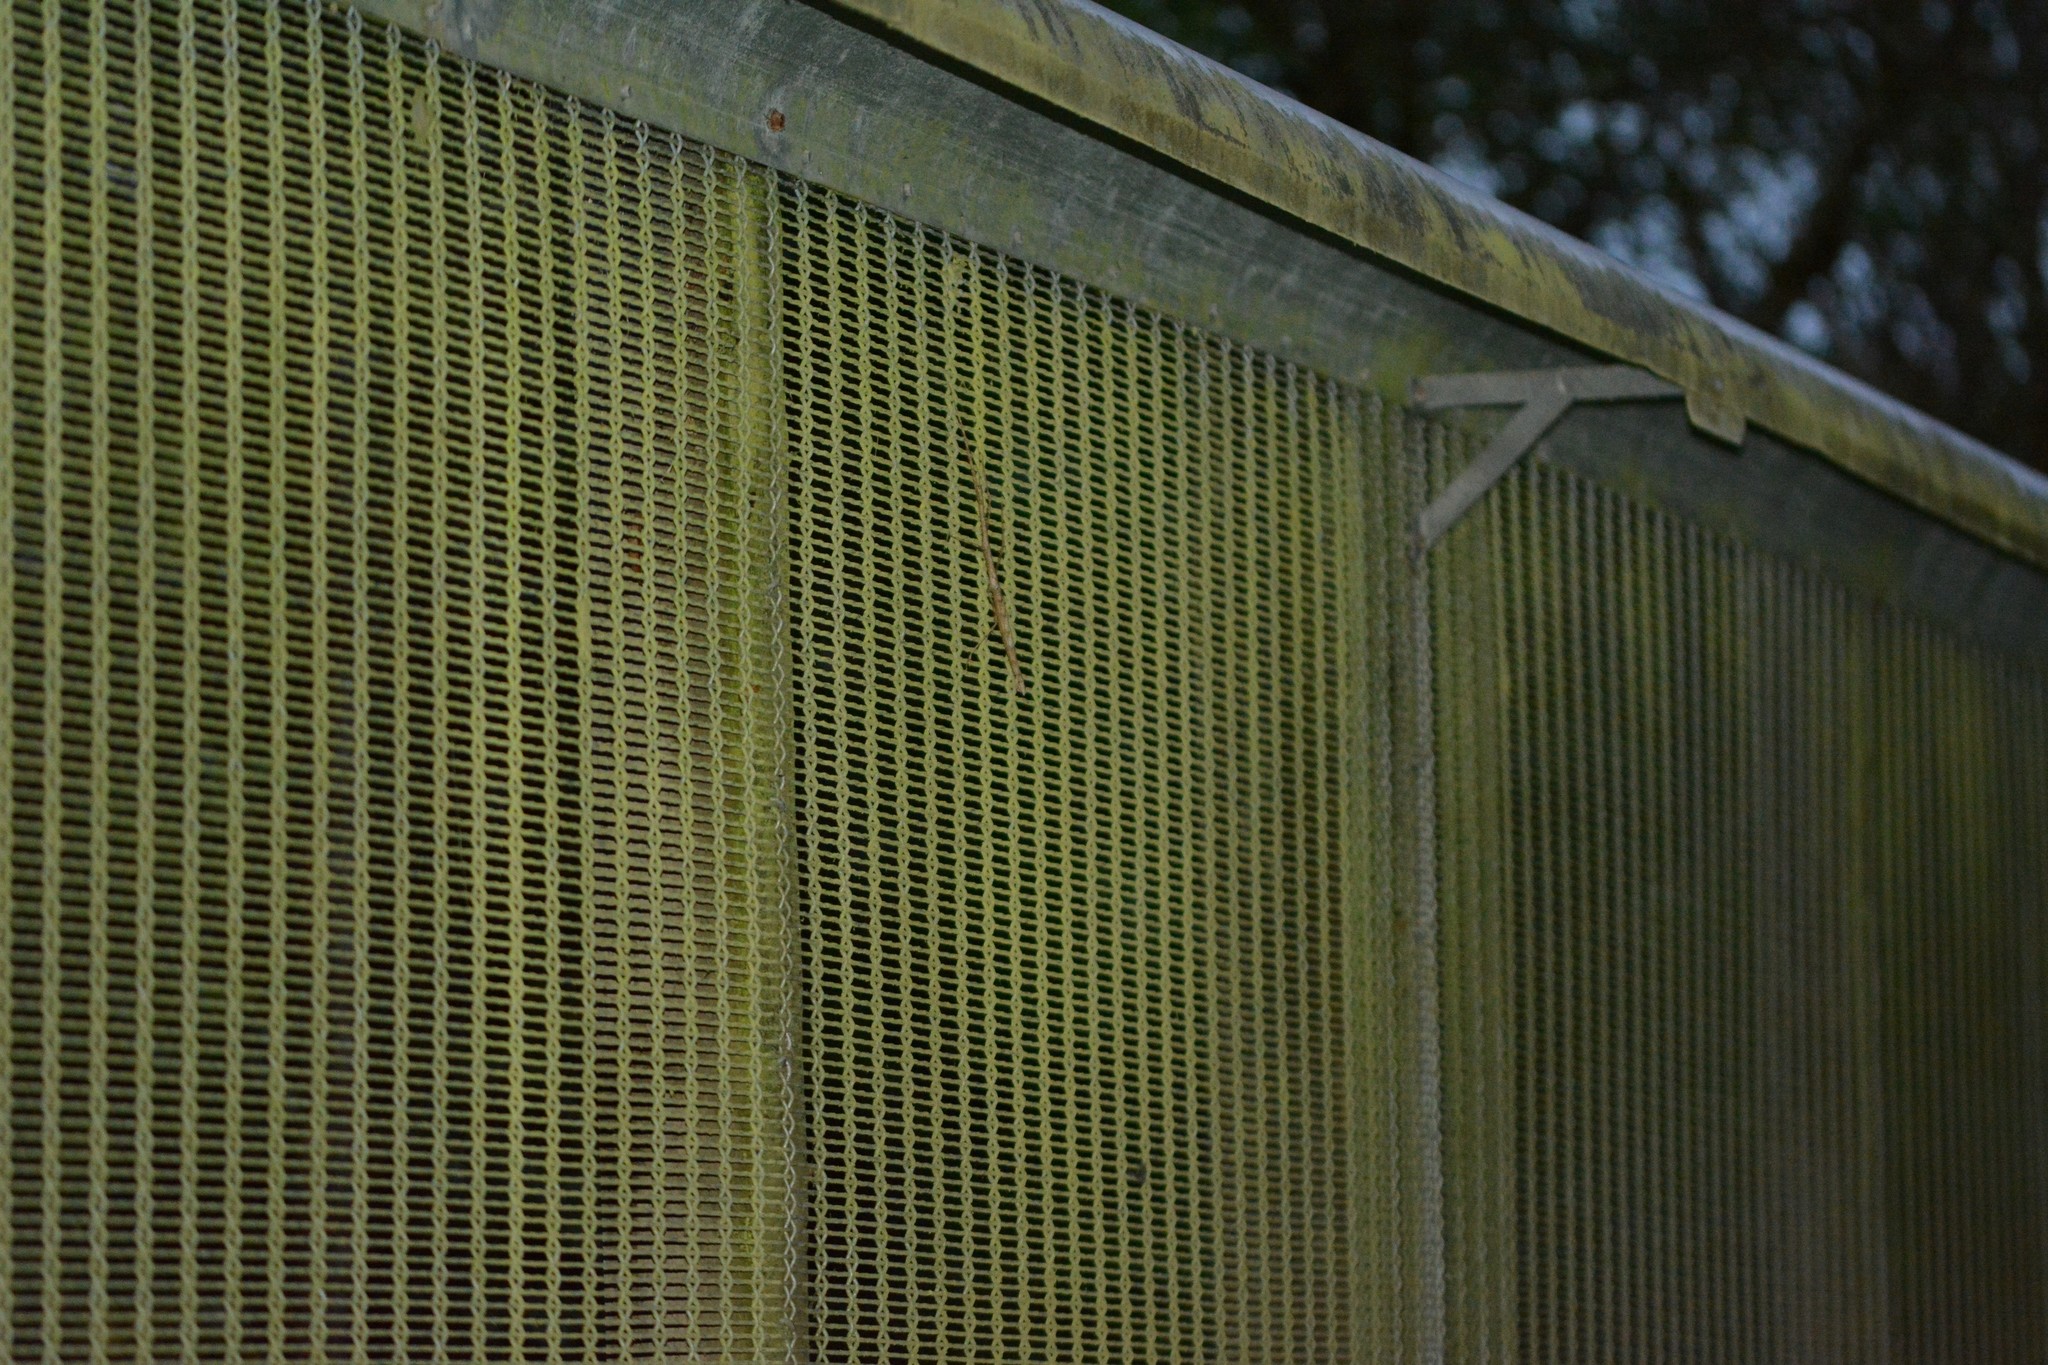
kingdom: Animalia
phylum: Arthropoda
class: Insecta
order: Phasmida
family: Phasmatidae
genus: Argosarchus
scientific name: Argosarchus horridus
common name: Bristly stick insect
